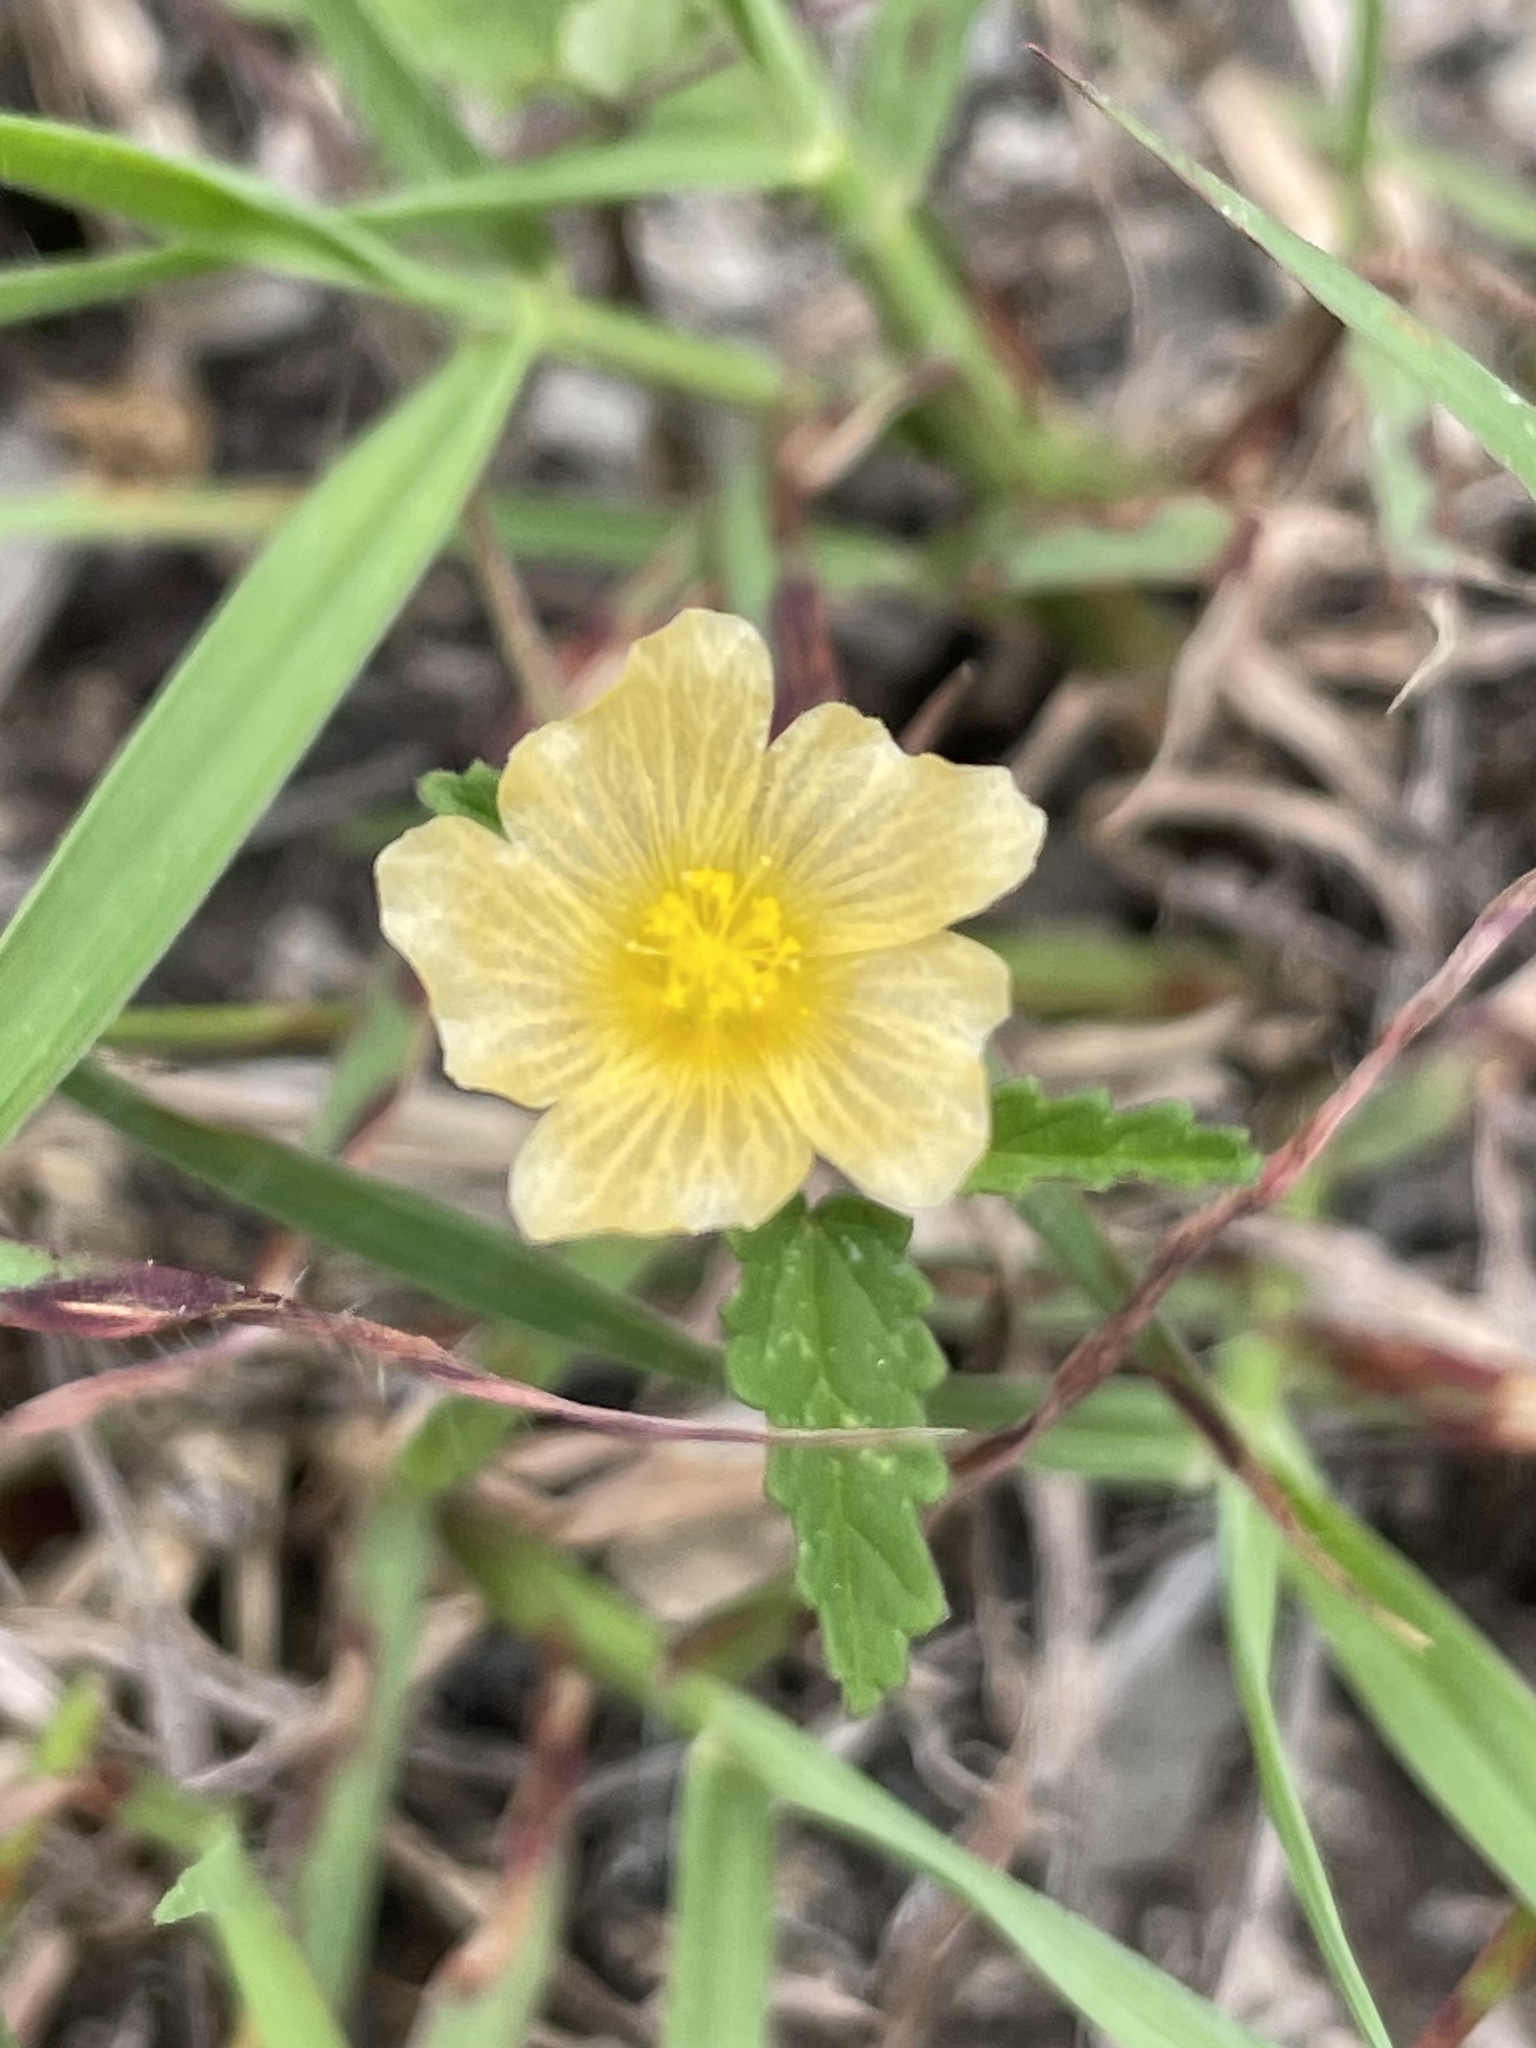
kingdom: Plantae
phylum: Tracheophyta
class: Magnoliopsida
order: Malvales
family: Malvaceae
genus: Sida
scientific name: Sida abutilifolia
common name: Spreading fanpetals
